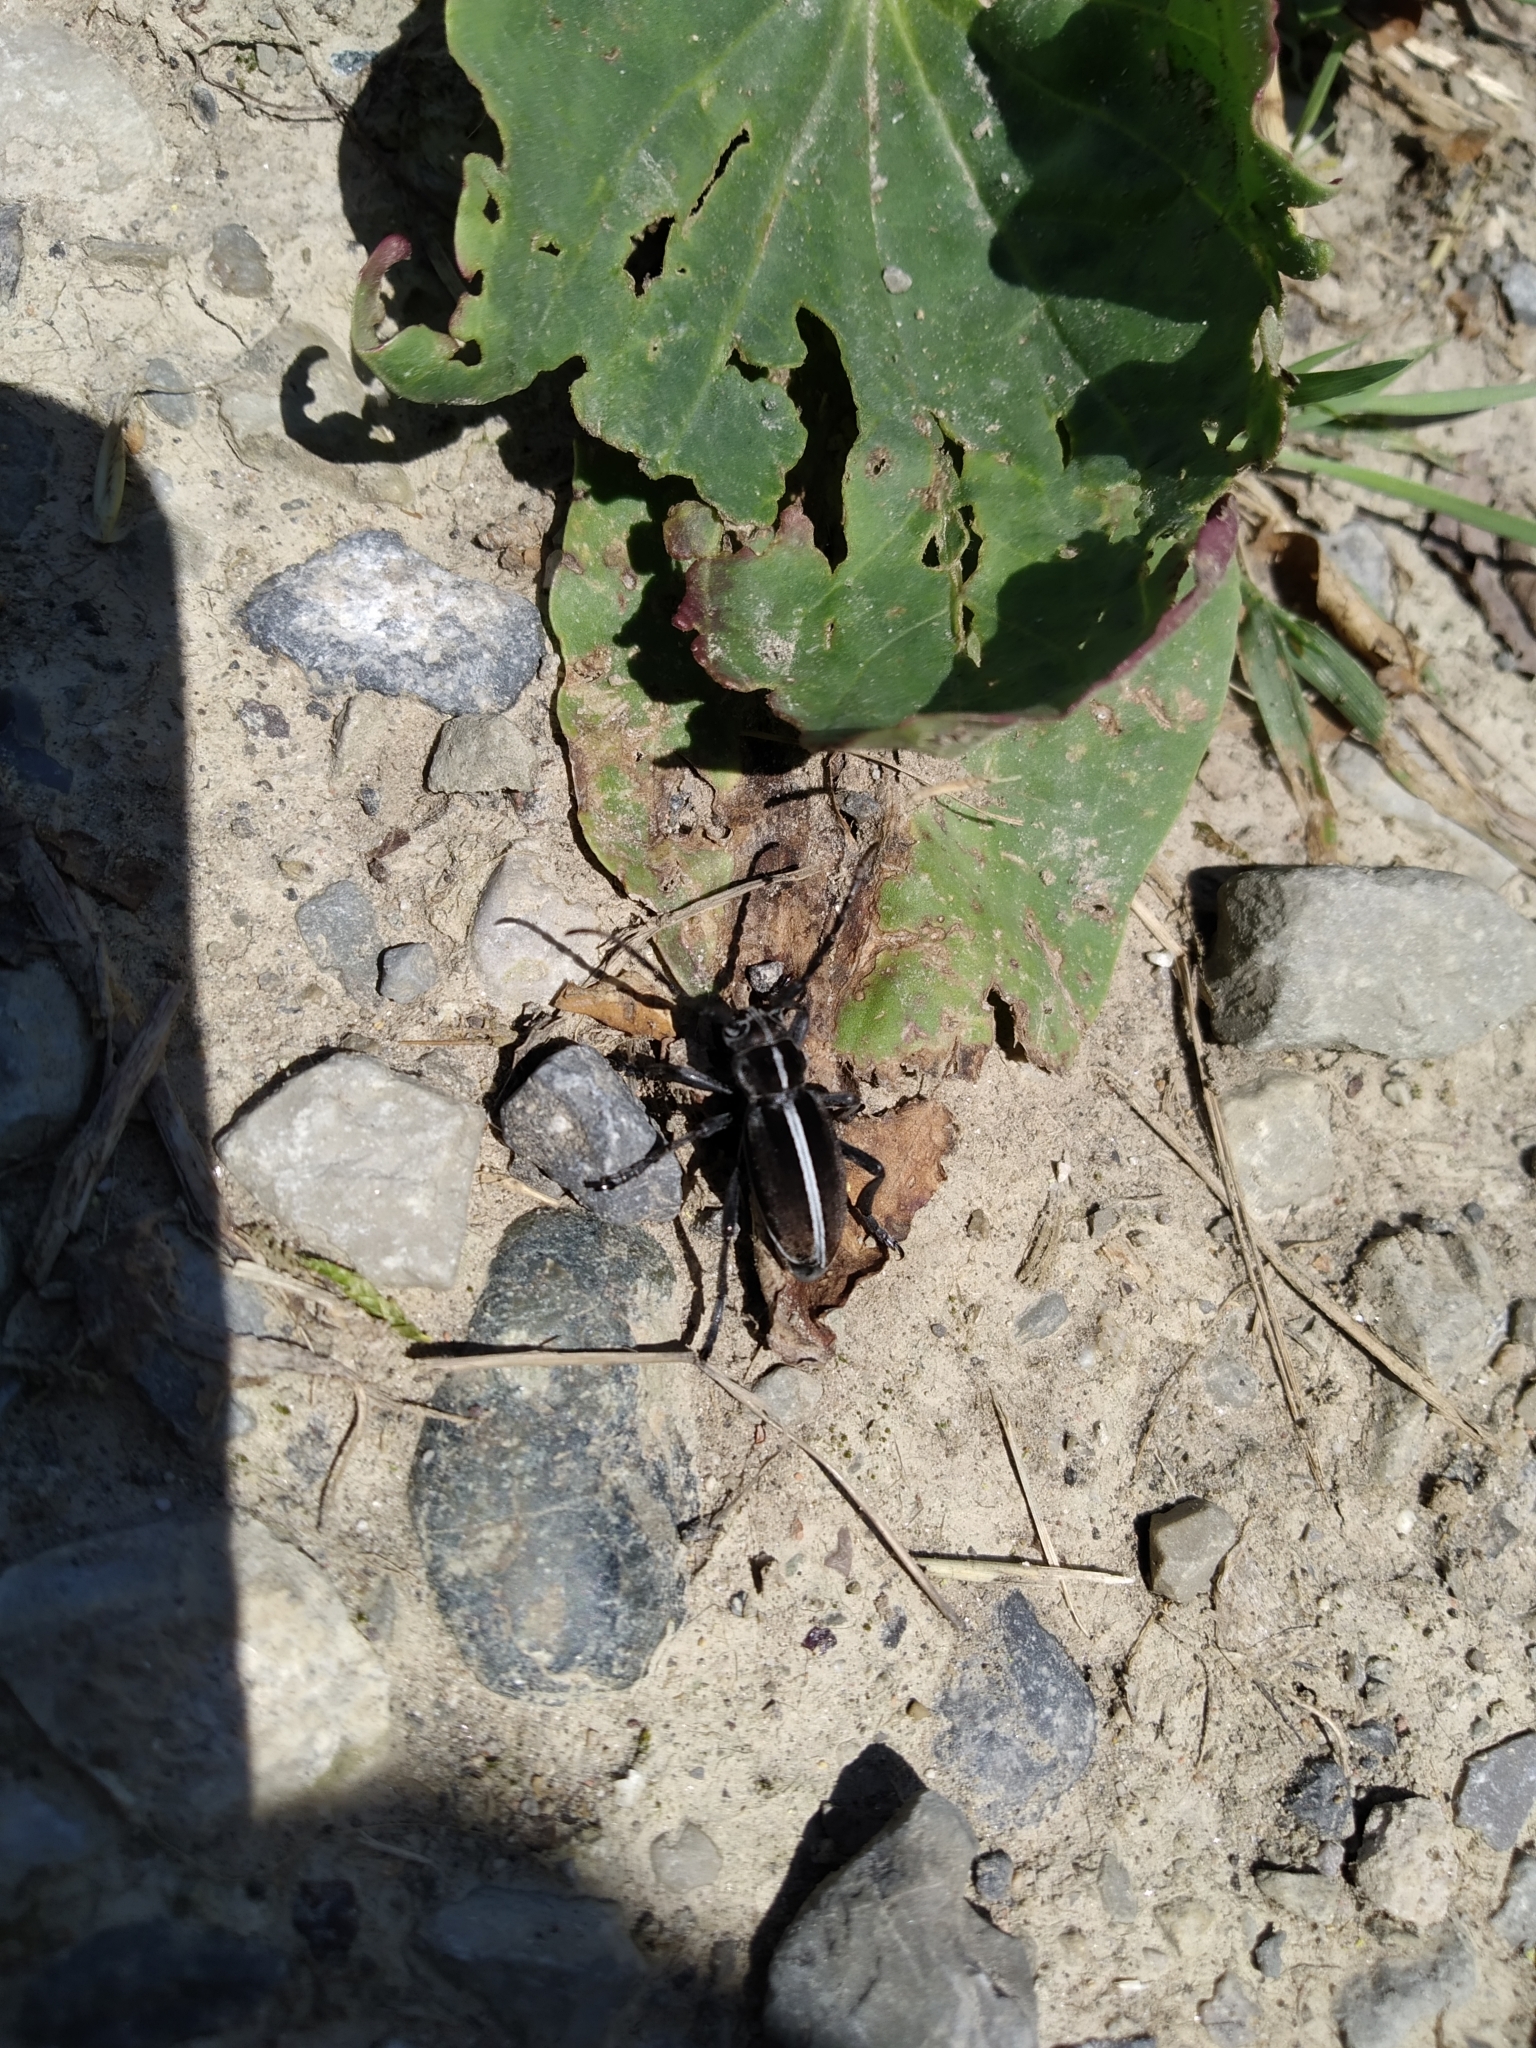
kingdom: Animalia
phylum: Arthropoda
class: Insecta
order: Coleoptera
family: Cerambycidae
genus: Dorcadion
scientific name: Dorcadion arenarium
